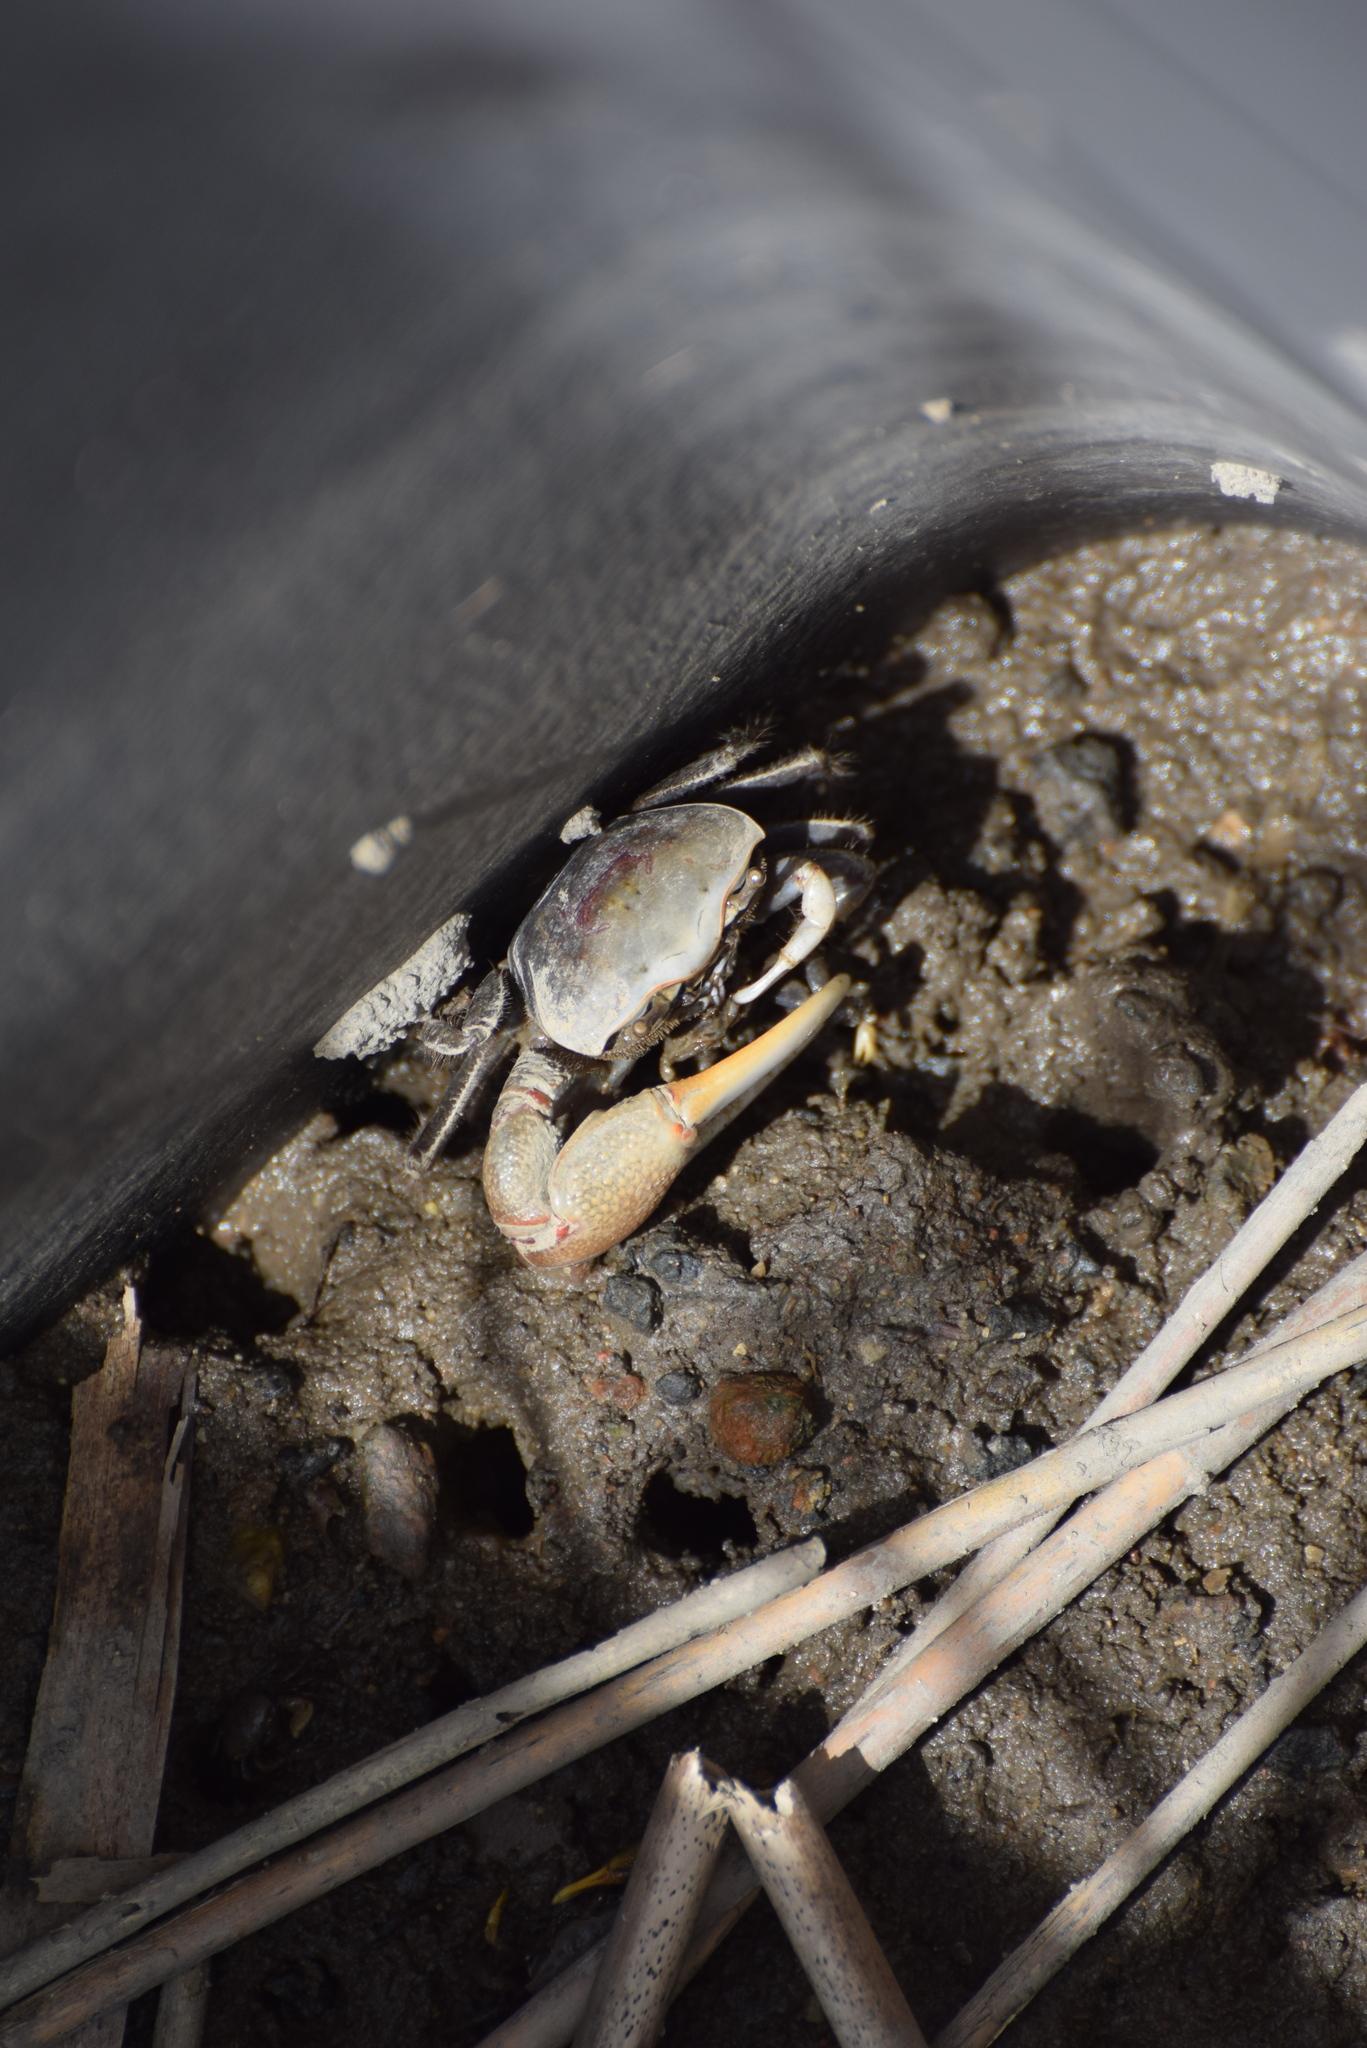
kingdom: Animalia
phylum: Arthropoda
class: Malacostraca
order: Decapoda
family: Ocypodidae
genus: Minuca
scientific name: Minuca minax
